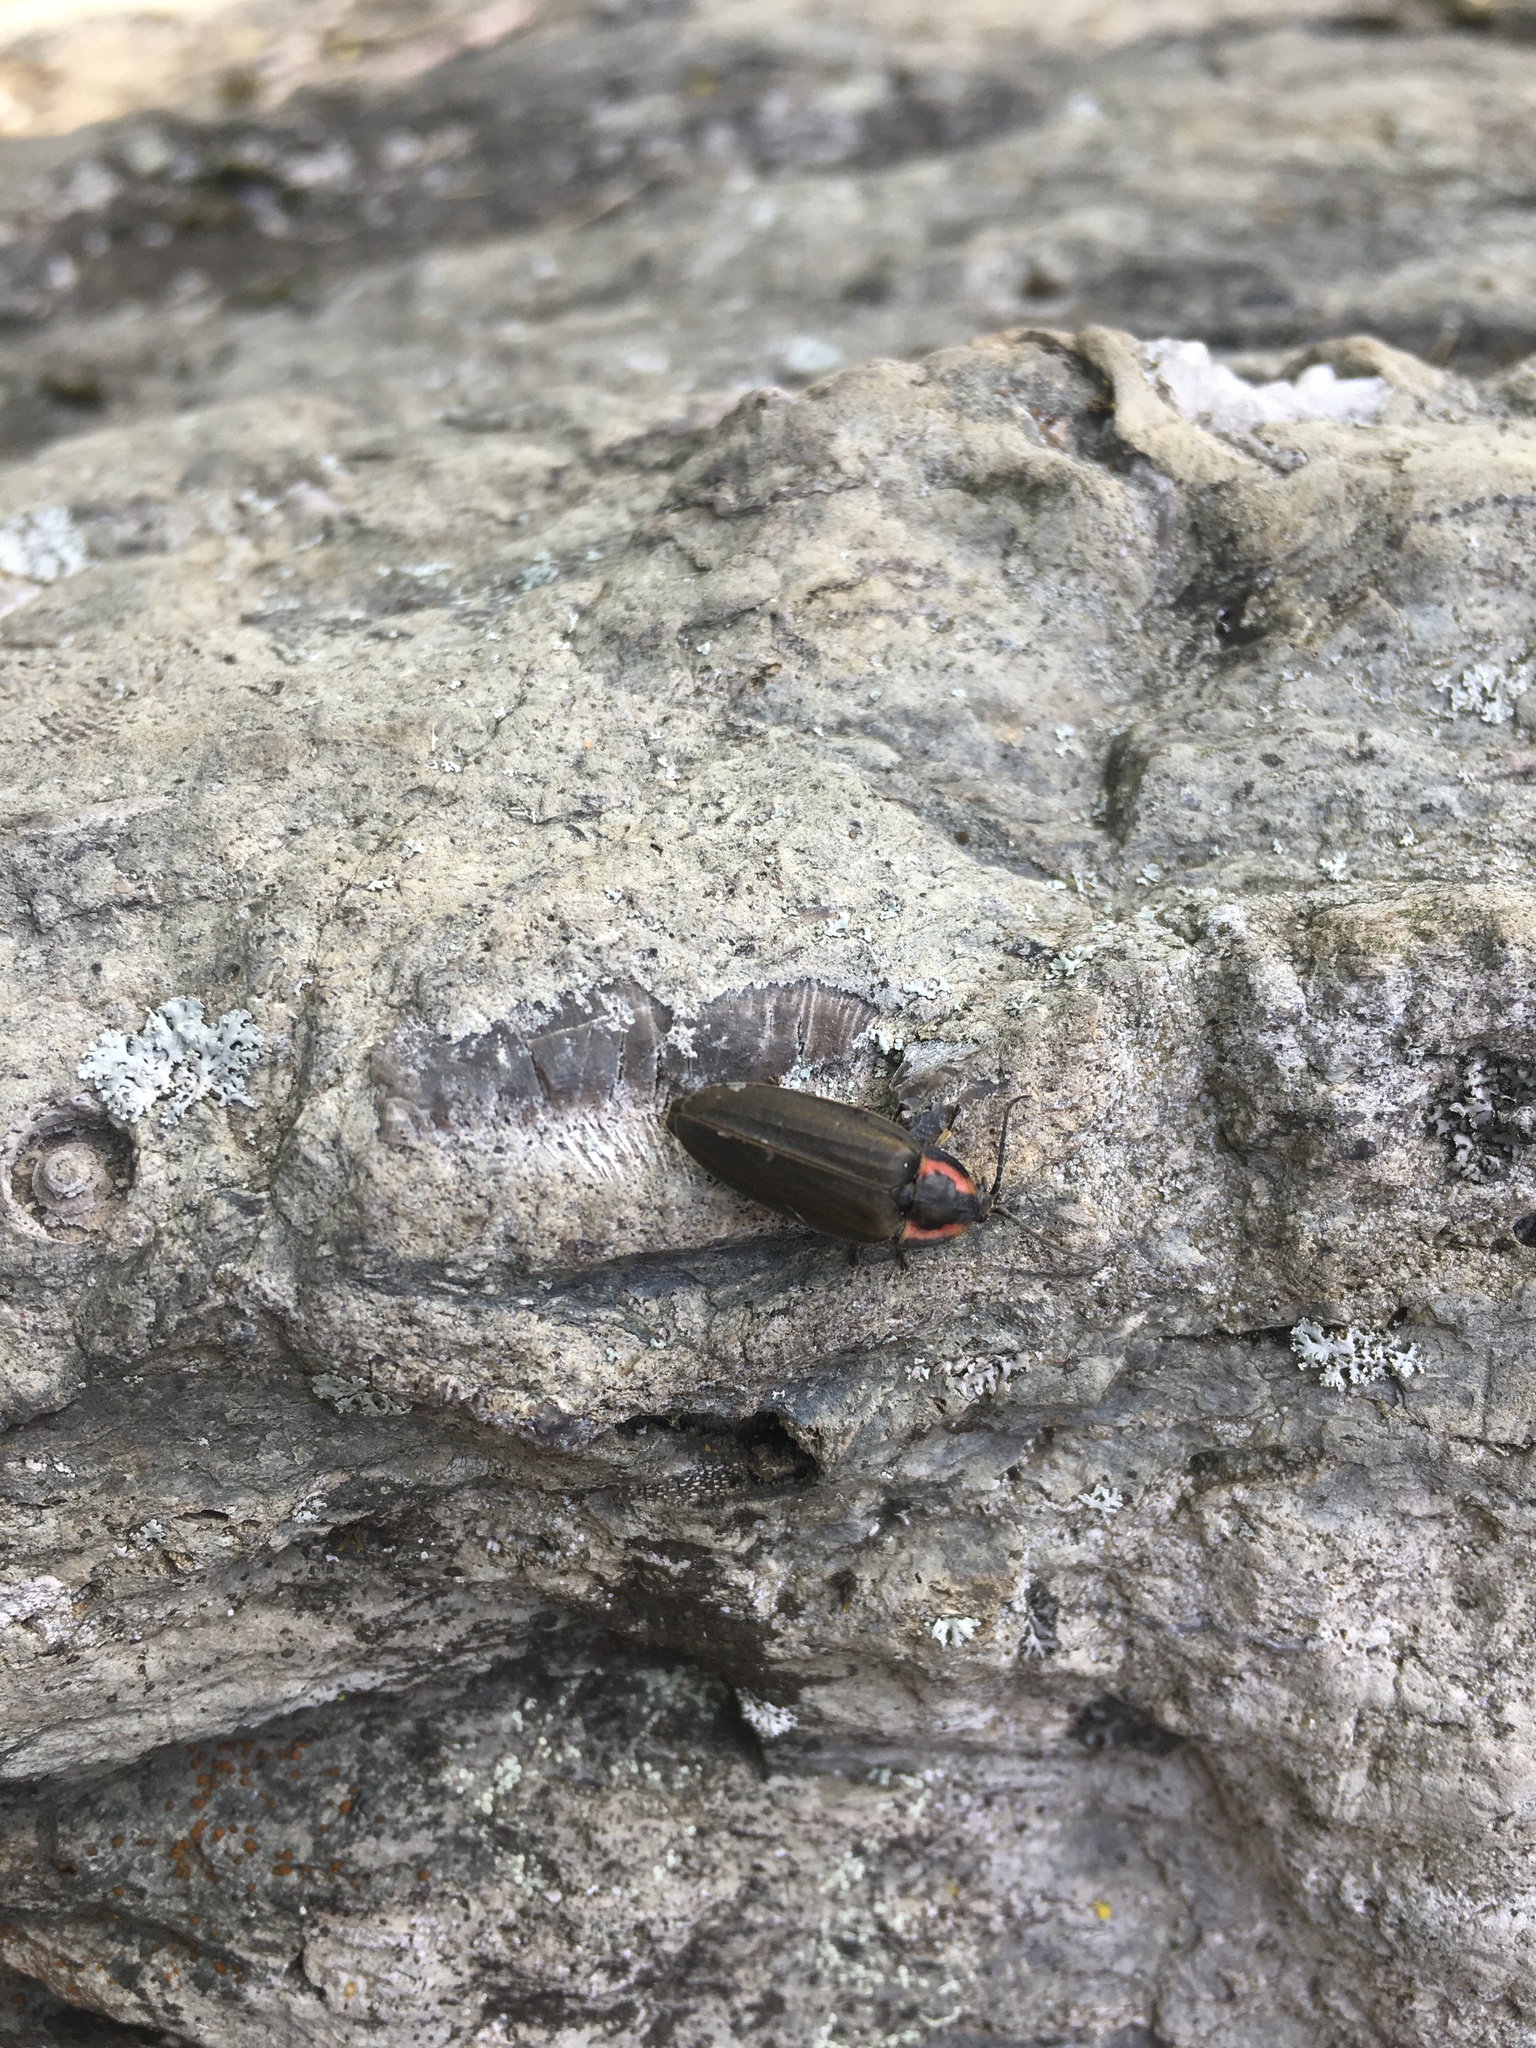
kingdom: Animalia
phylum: Arthropoda
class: Insecta
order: Coleoptera
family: Lampyridae
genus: Photinus
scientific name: Photinus corrusca
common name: Winter firefly
